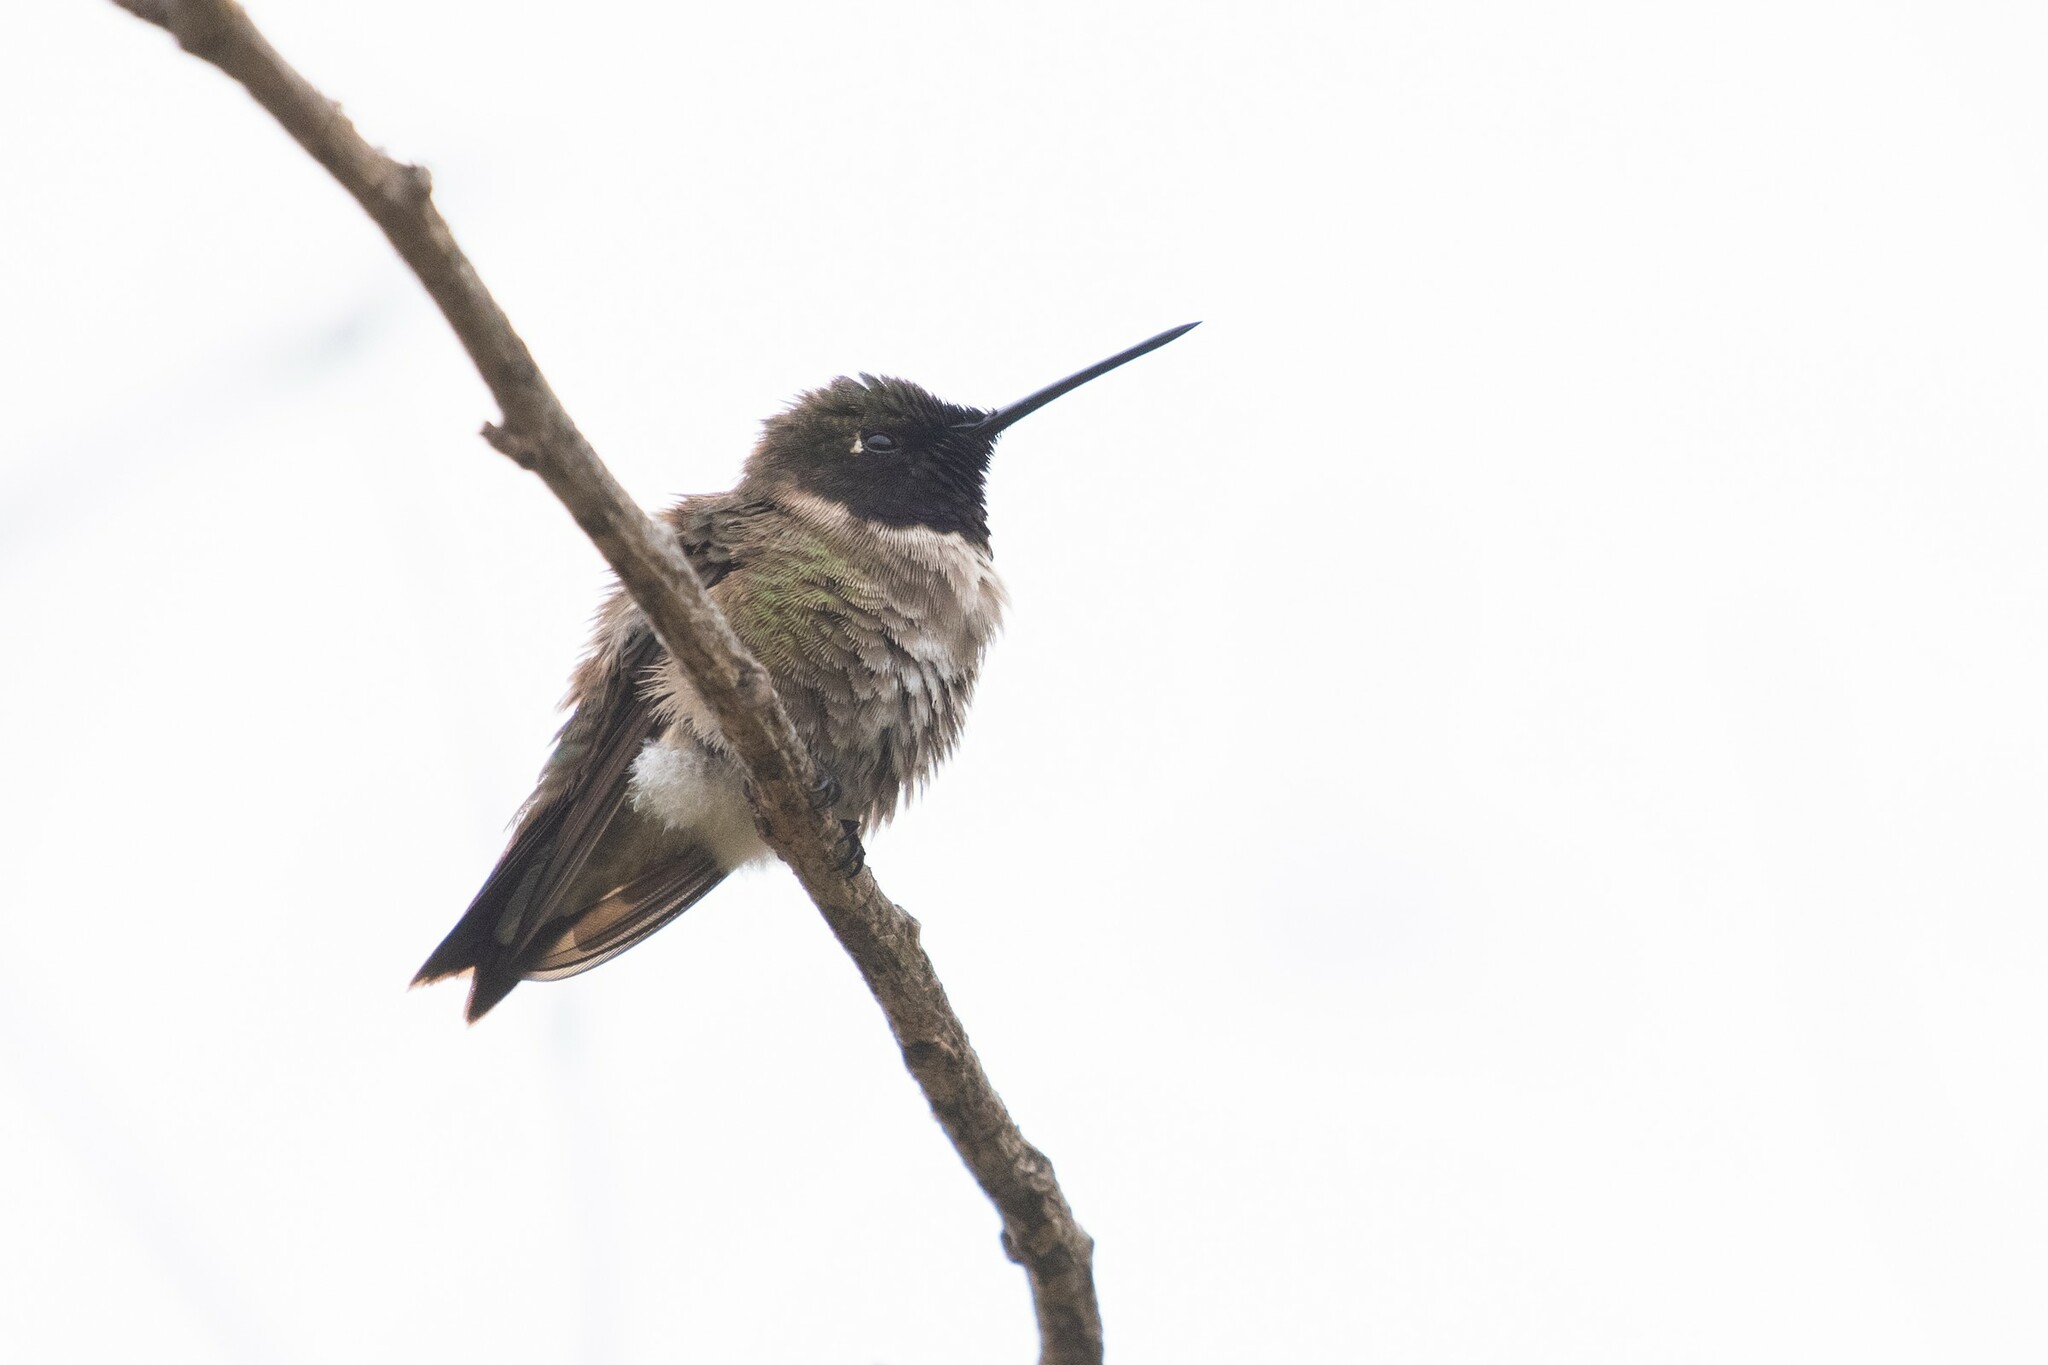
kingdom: Animalia
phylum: Chordata
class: Aves
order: Apodiformes
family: Trochilidae
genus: Archilochus
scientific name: Archilochus alexandri
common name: Black-chinned hummingbird
